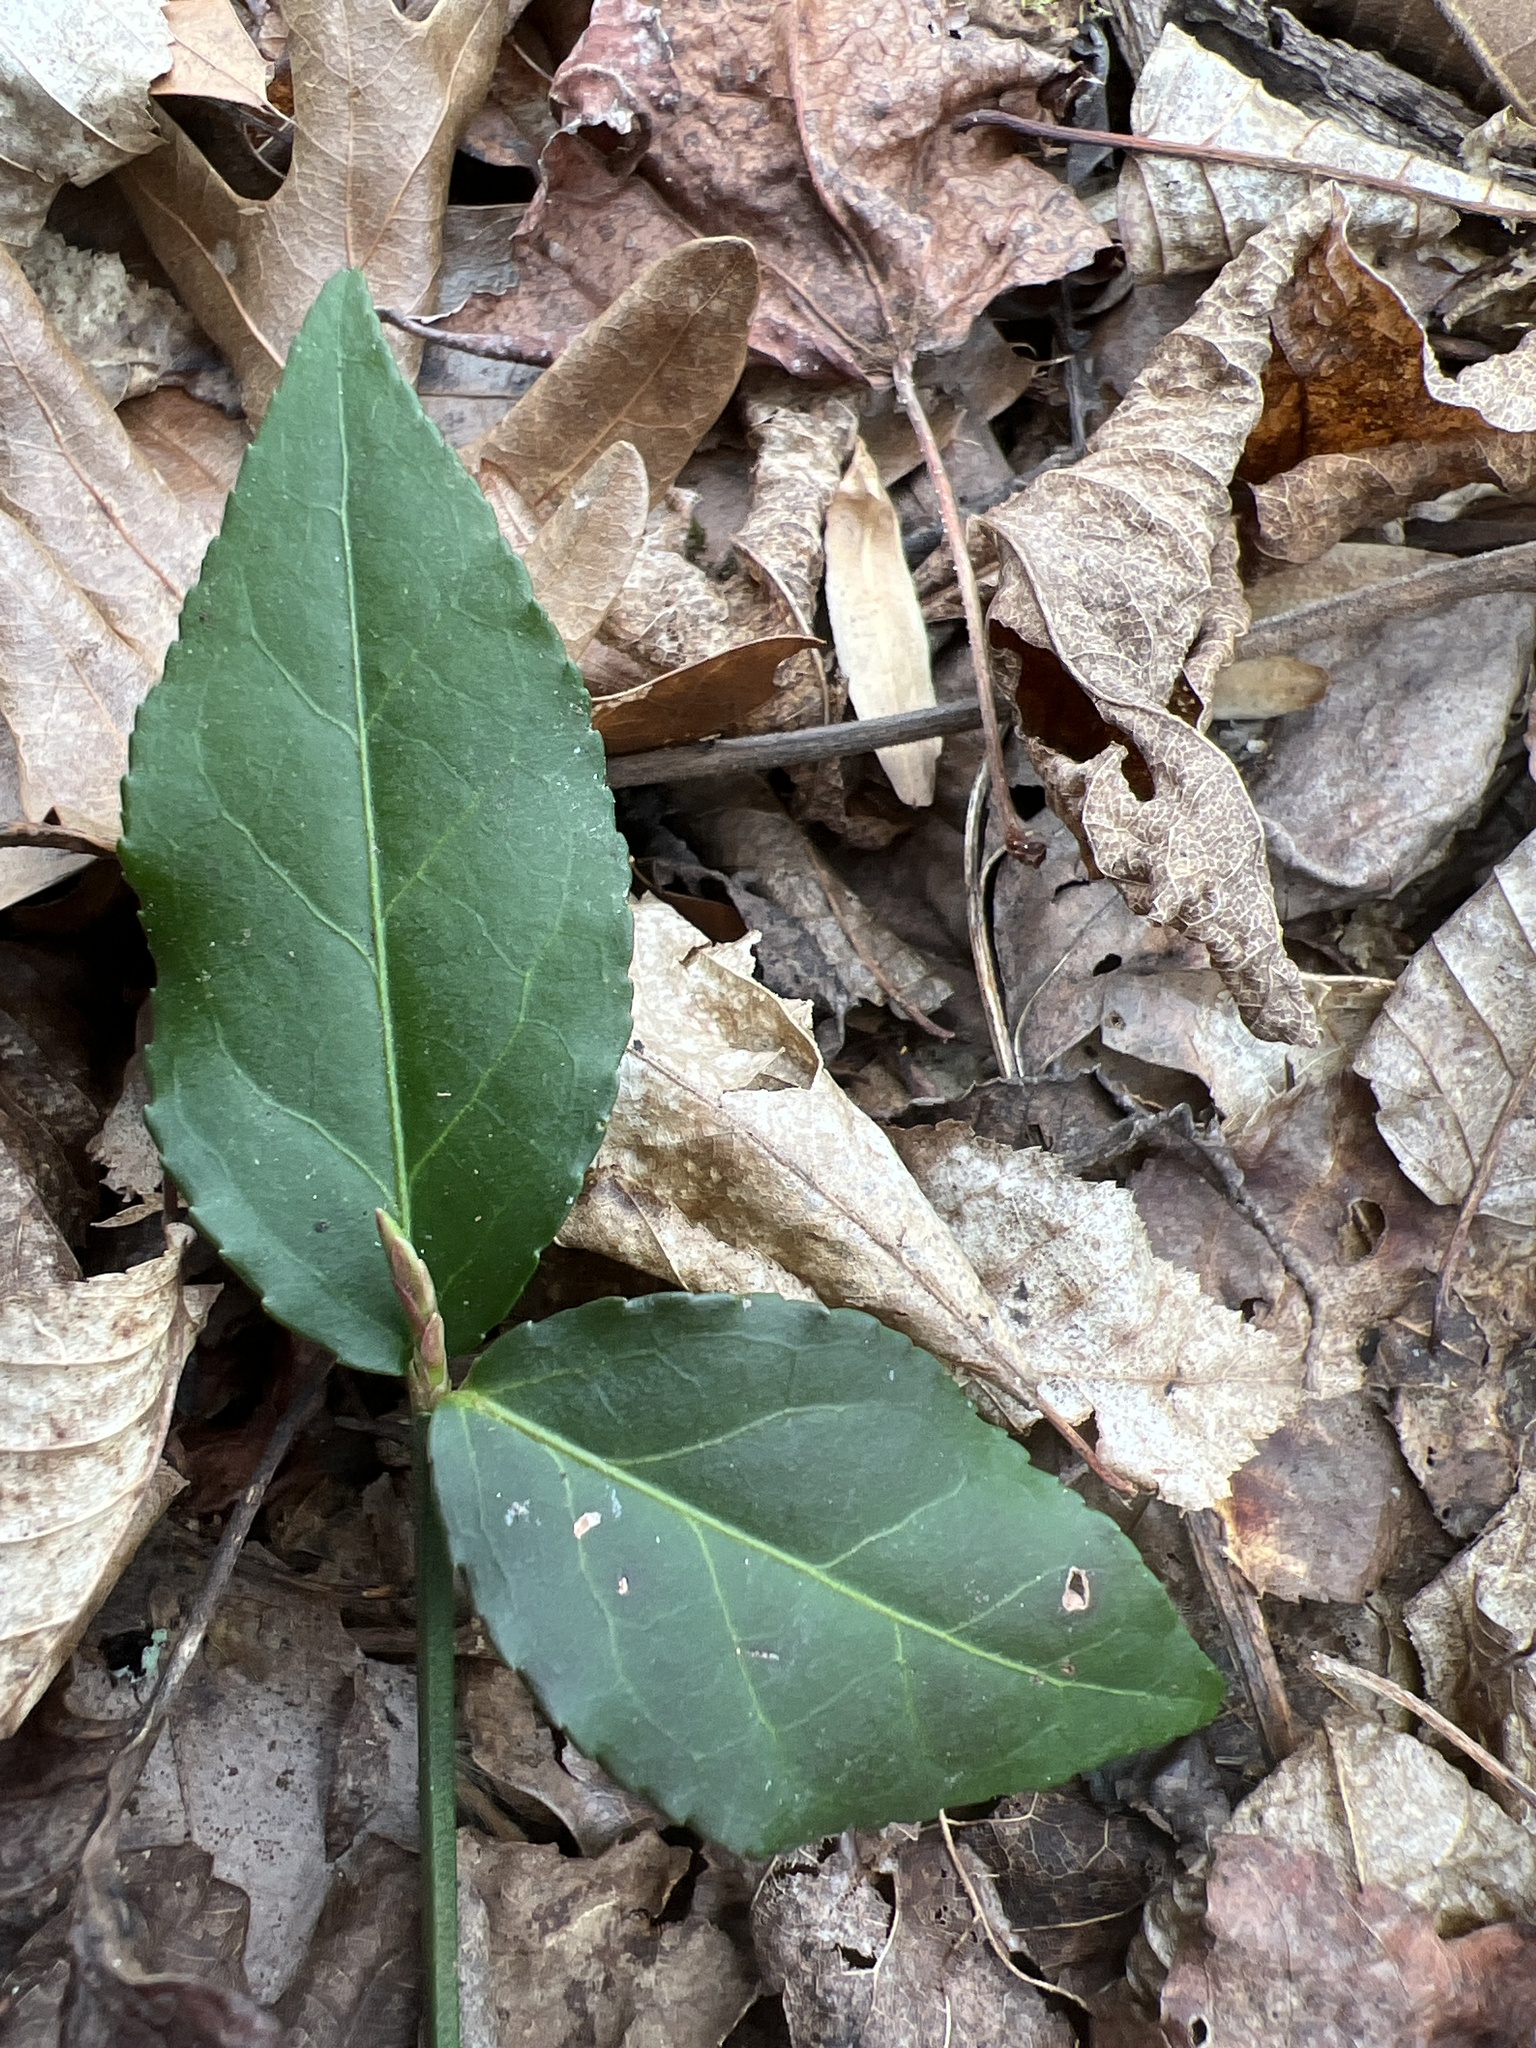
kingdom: Plantae
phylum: Tracheophyta
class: Magnoliopsida
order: Celastrales
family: Celastraceae
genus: Euonymus
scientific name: Euonymus americanus
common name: Bursting-heart
